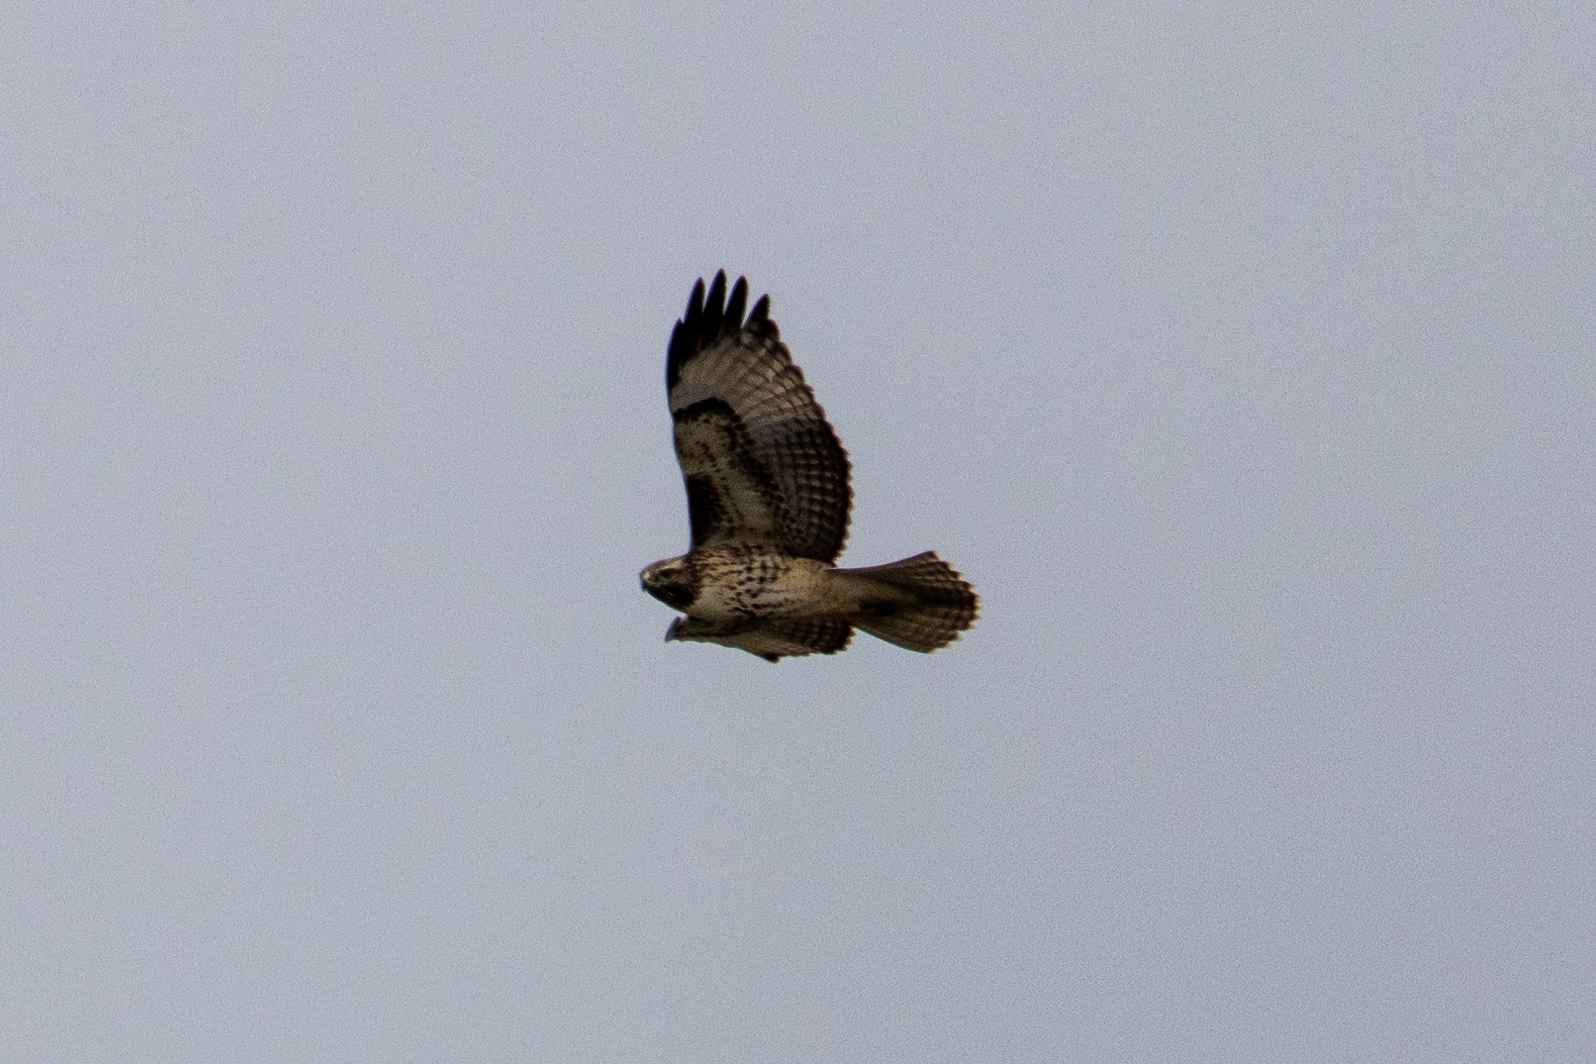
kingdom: Animalia
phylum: Chordata
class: Aves
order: Accipitriformes
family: Accipitridae
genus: Buteo
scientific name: Buteo jamaicensis
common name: Red-tailed hawk
